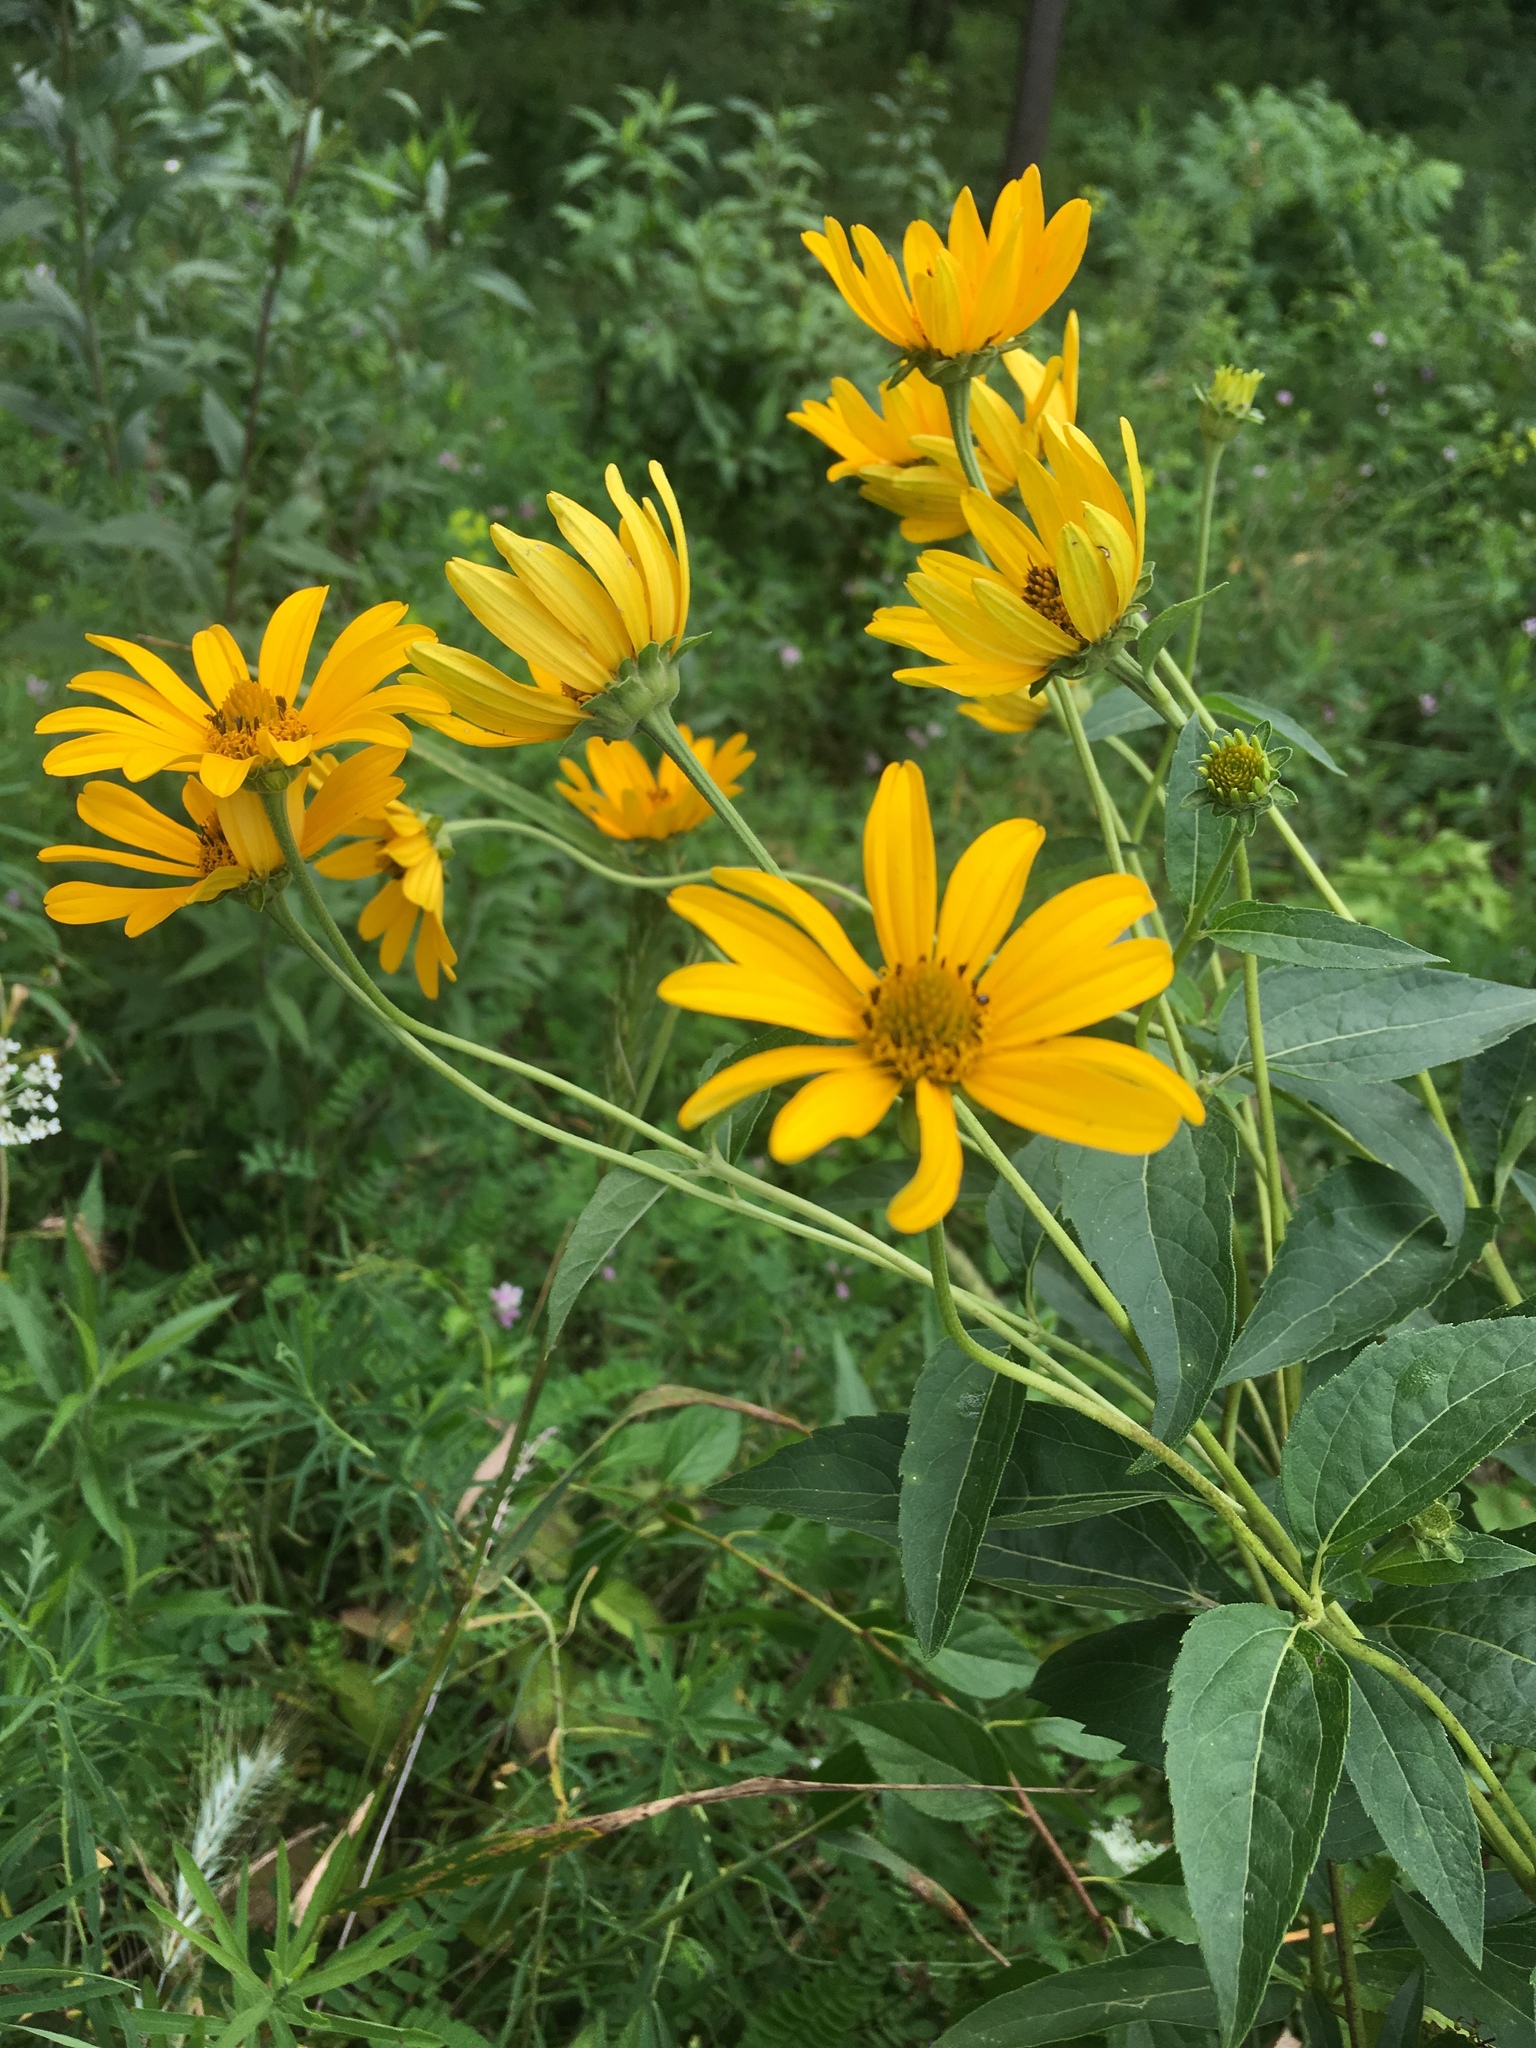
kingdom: Plantae
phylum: Tracheophyta
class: Magnoliopsida
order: Asterales
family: Asteraceae
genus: Heliopsis
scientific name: Heliopsis helianthoides
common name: False sunflower
